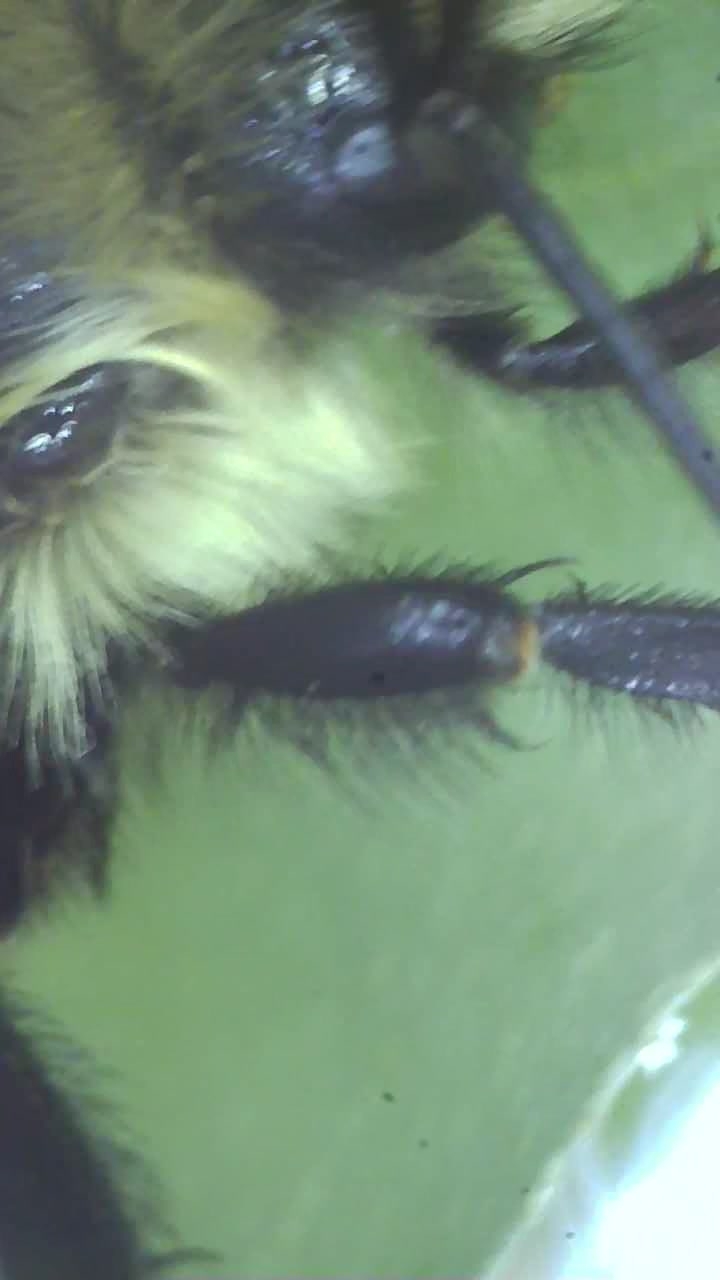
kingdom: Animalia
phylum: Arthropoda
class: Insecta
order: Hymenoptera
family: Apidae
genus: Bombus
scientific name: Bombus impatiens
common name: Common eastern bumble bee
